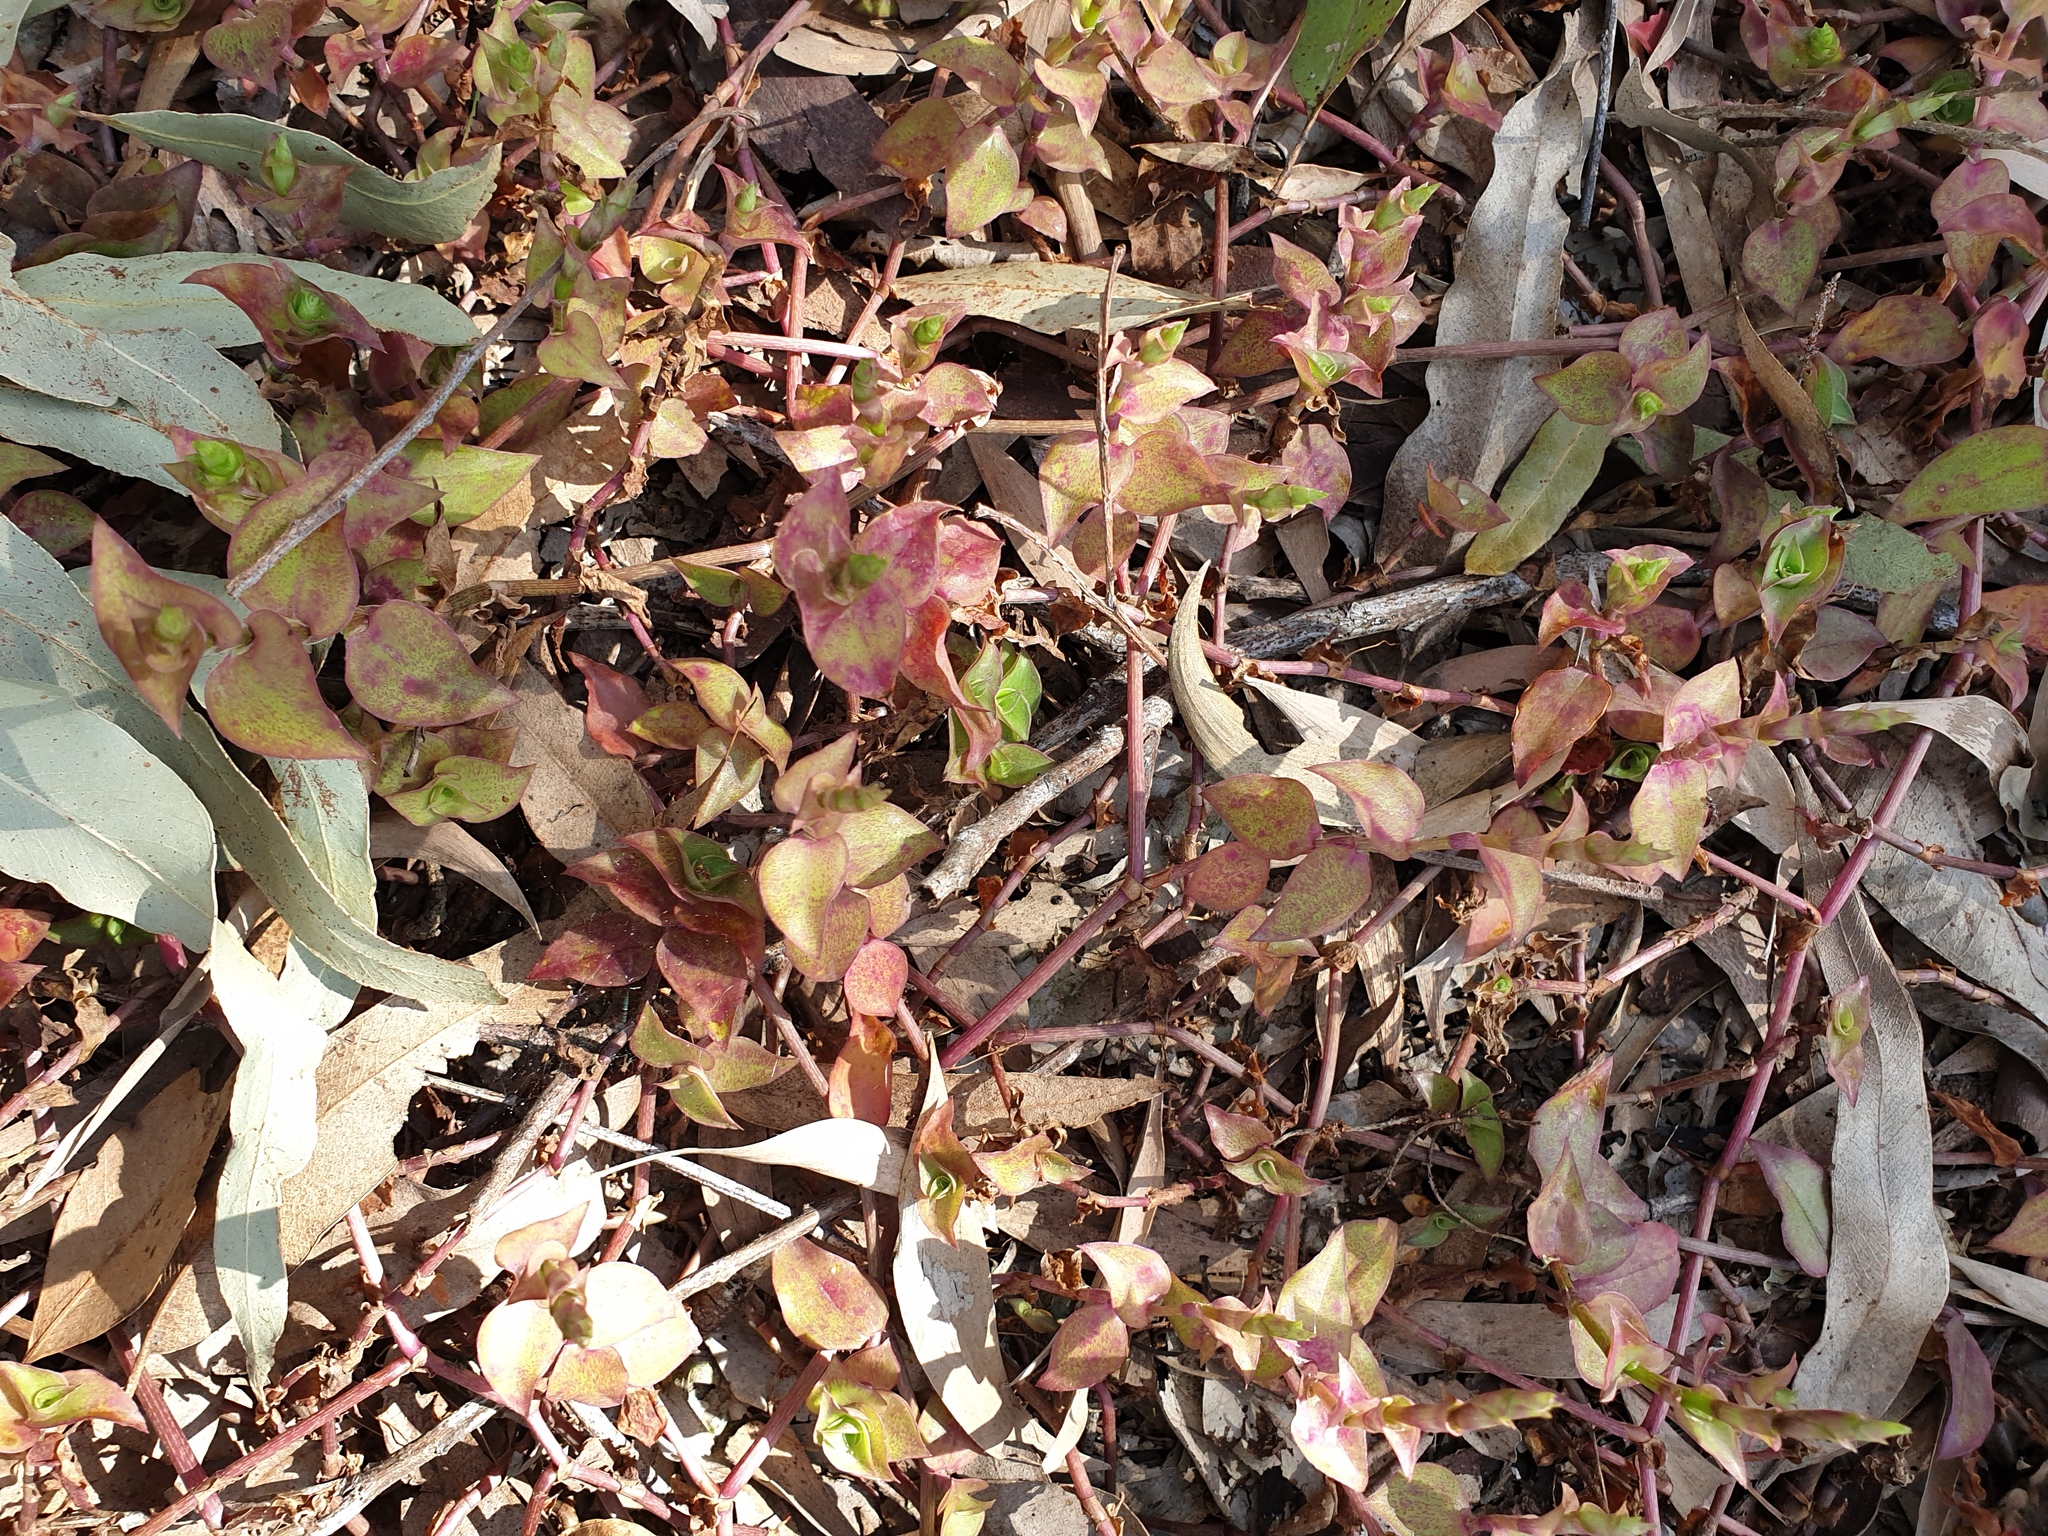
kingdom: Plantae
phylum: Tracheophyta
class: Liliopsida
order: Commelinales
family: Commelinaceae
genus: Callisia
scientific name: Callisia repens
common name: Creeping inchplant
